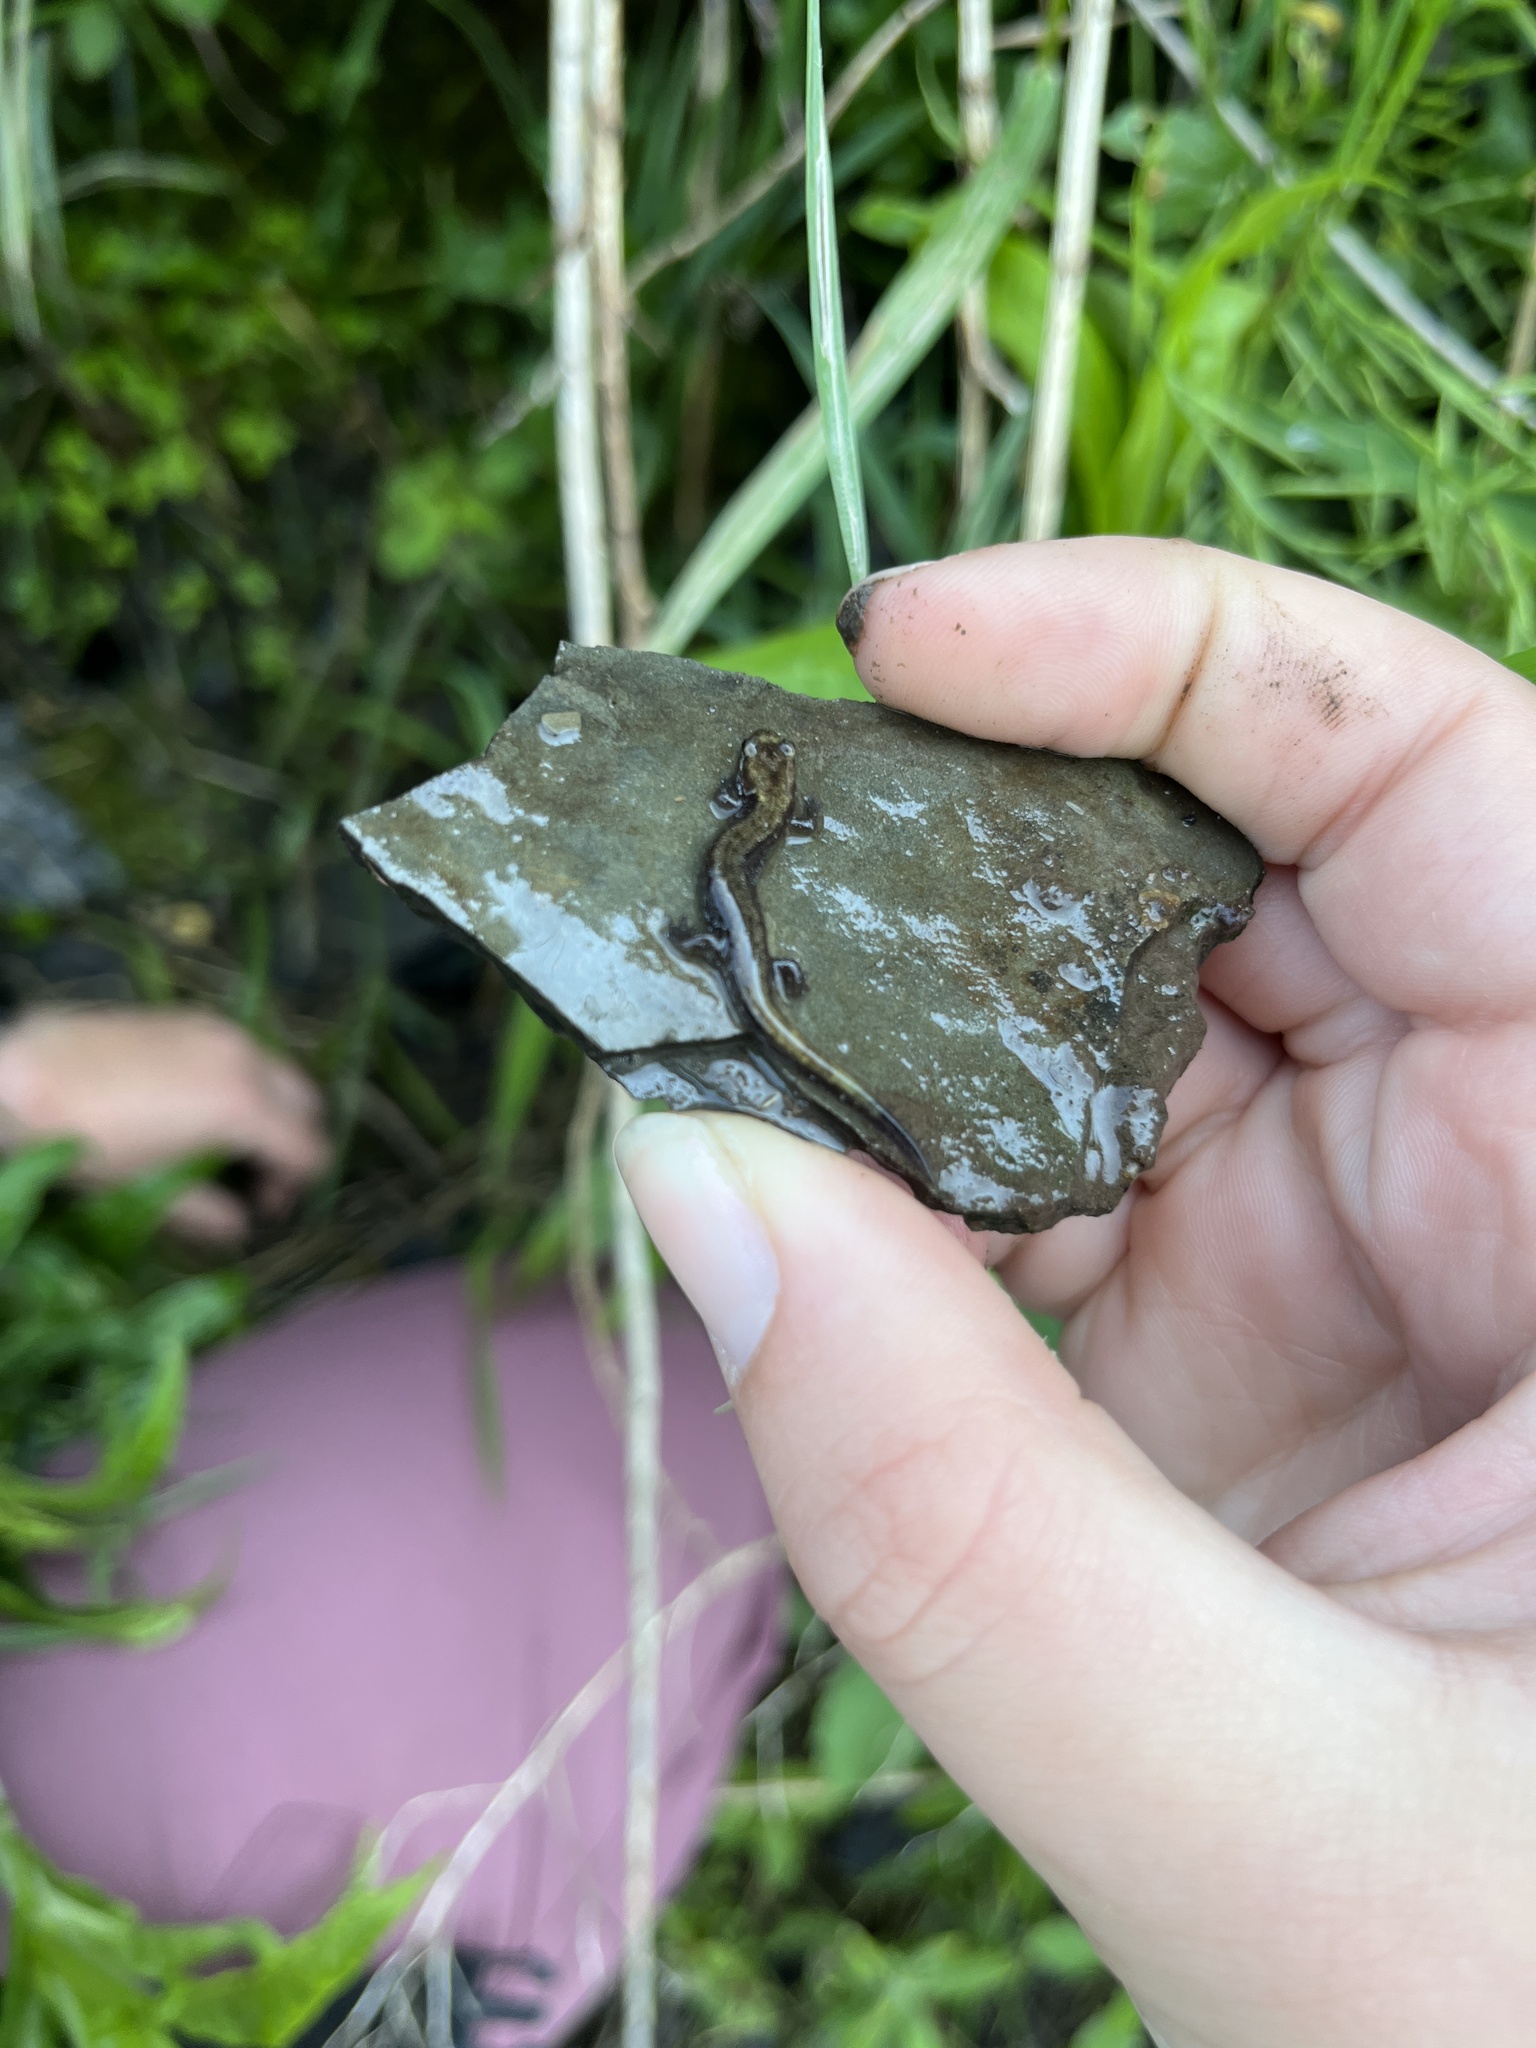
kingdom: Animalia
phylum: Chordata
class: Amphibia
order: Caudata
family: Plethodontidae
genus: Desmognathus
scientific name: Desmognathus ochrophaeus
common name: Allegheny mountain dusky salamander
